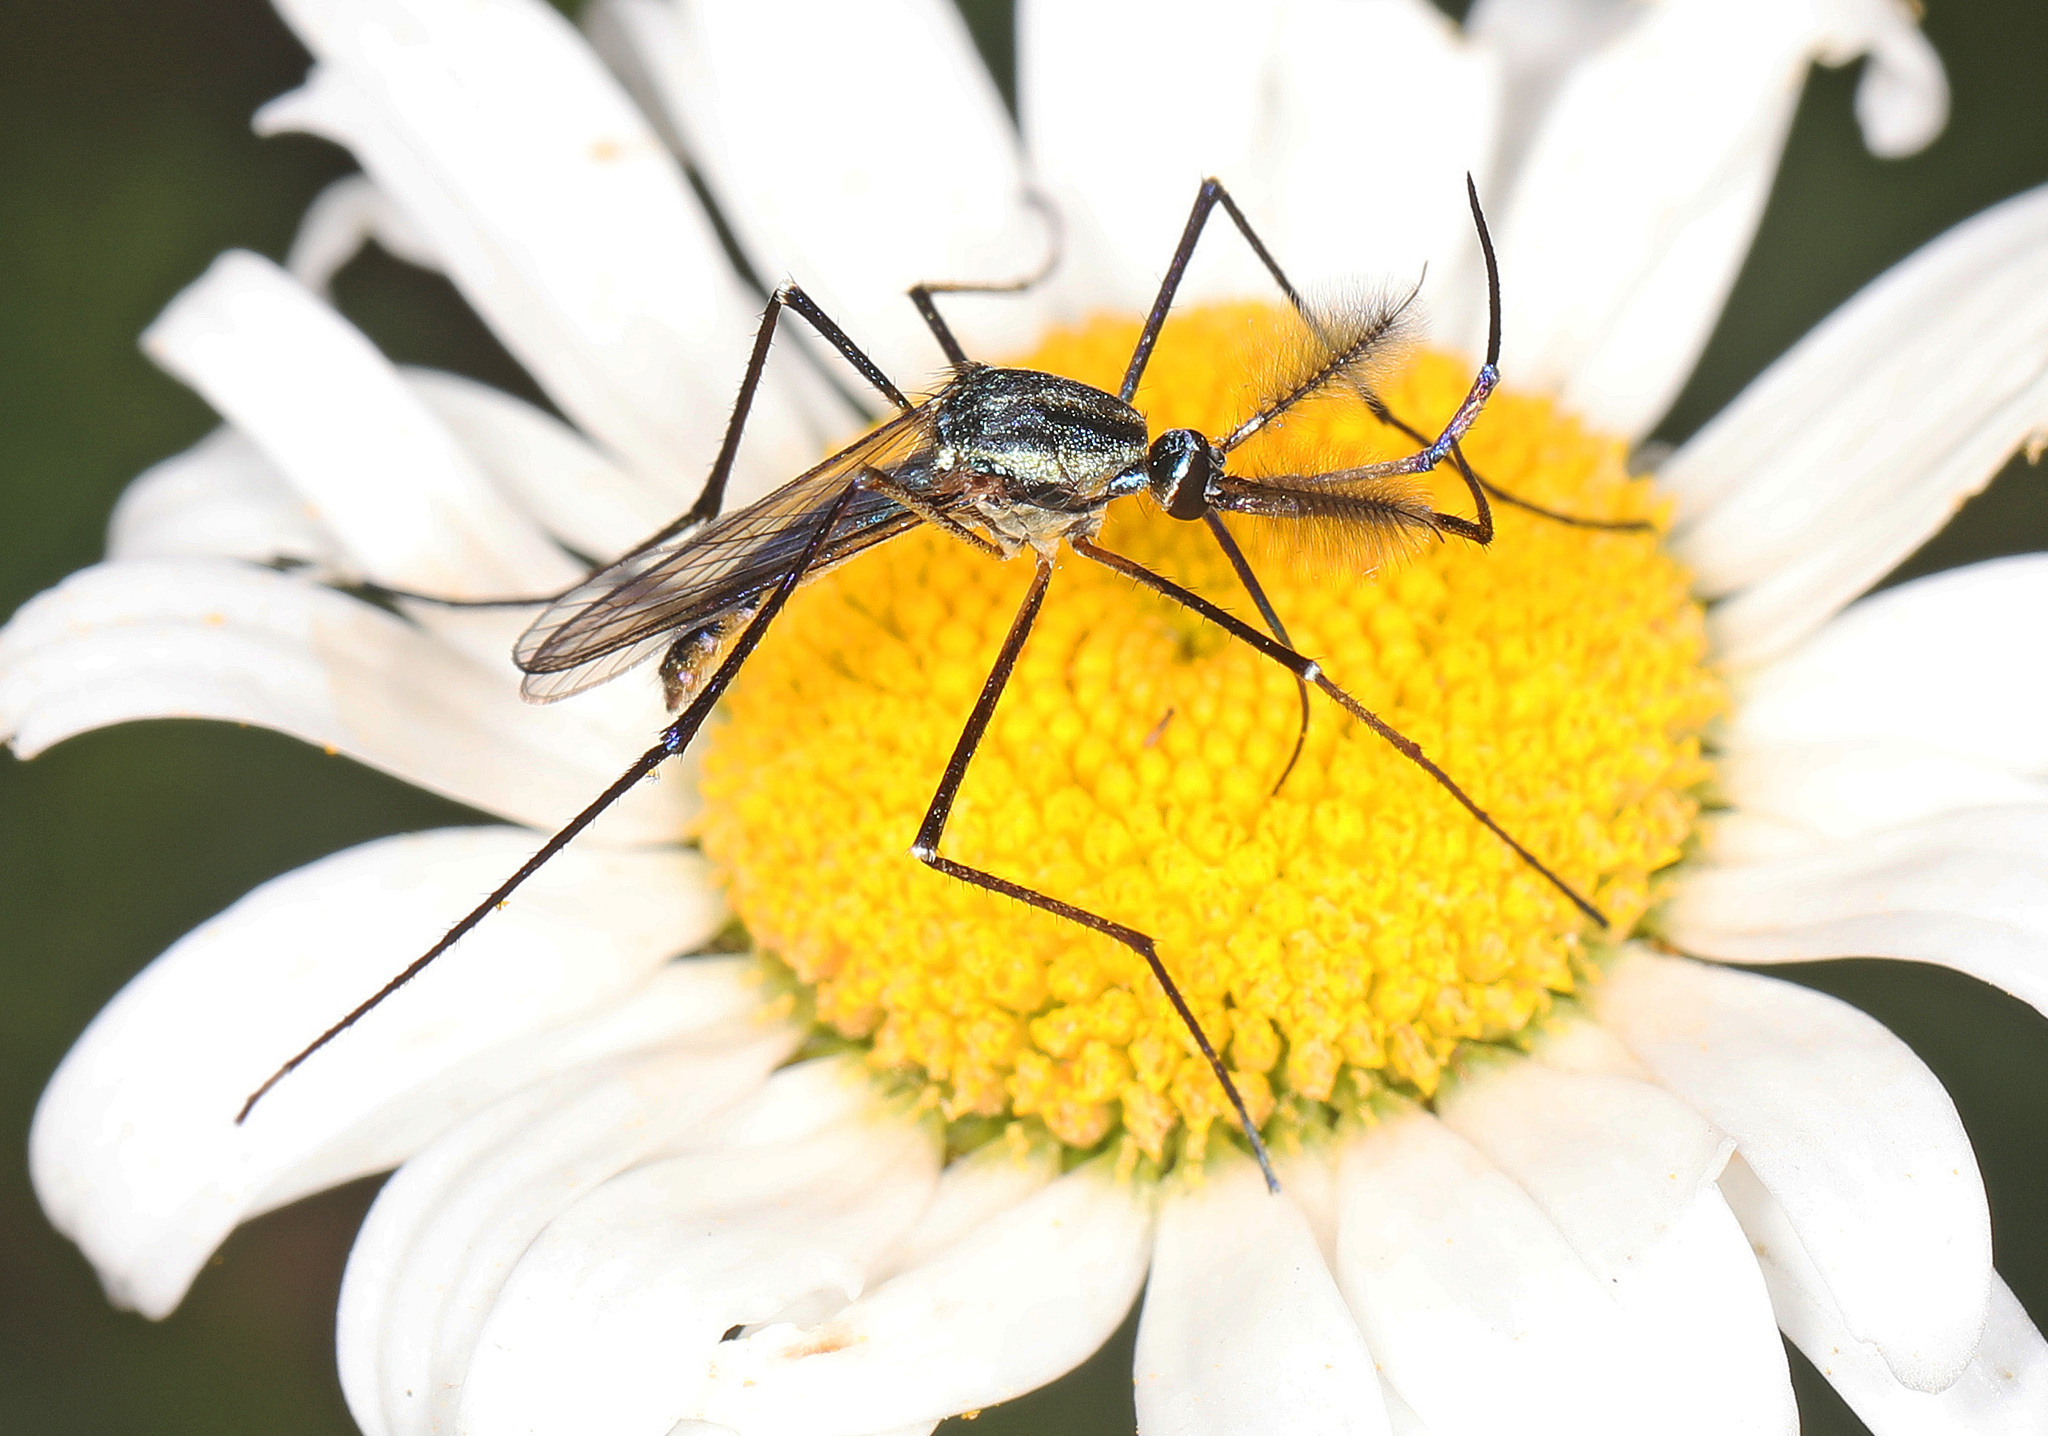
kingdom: Animalia
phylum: Arthropoda
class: Insecta
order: Diptera
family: Culicidae
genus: Toxorhynchites
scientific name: Toxorhynchites rutilus
